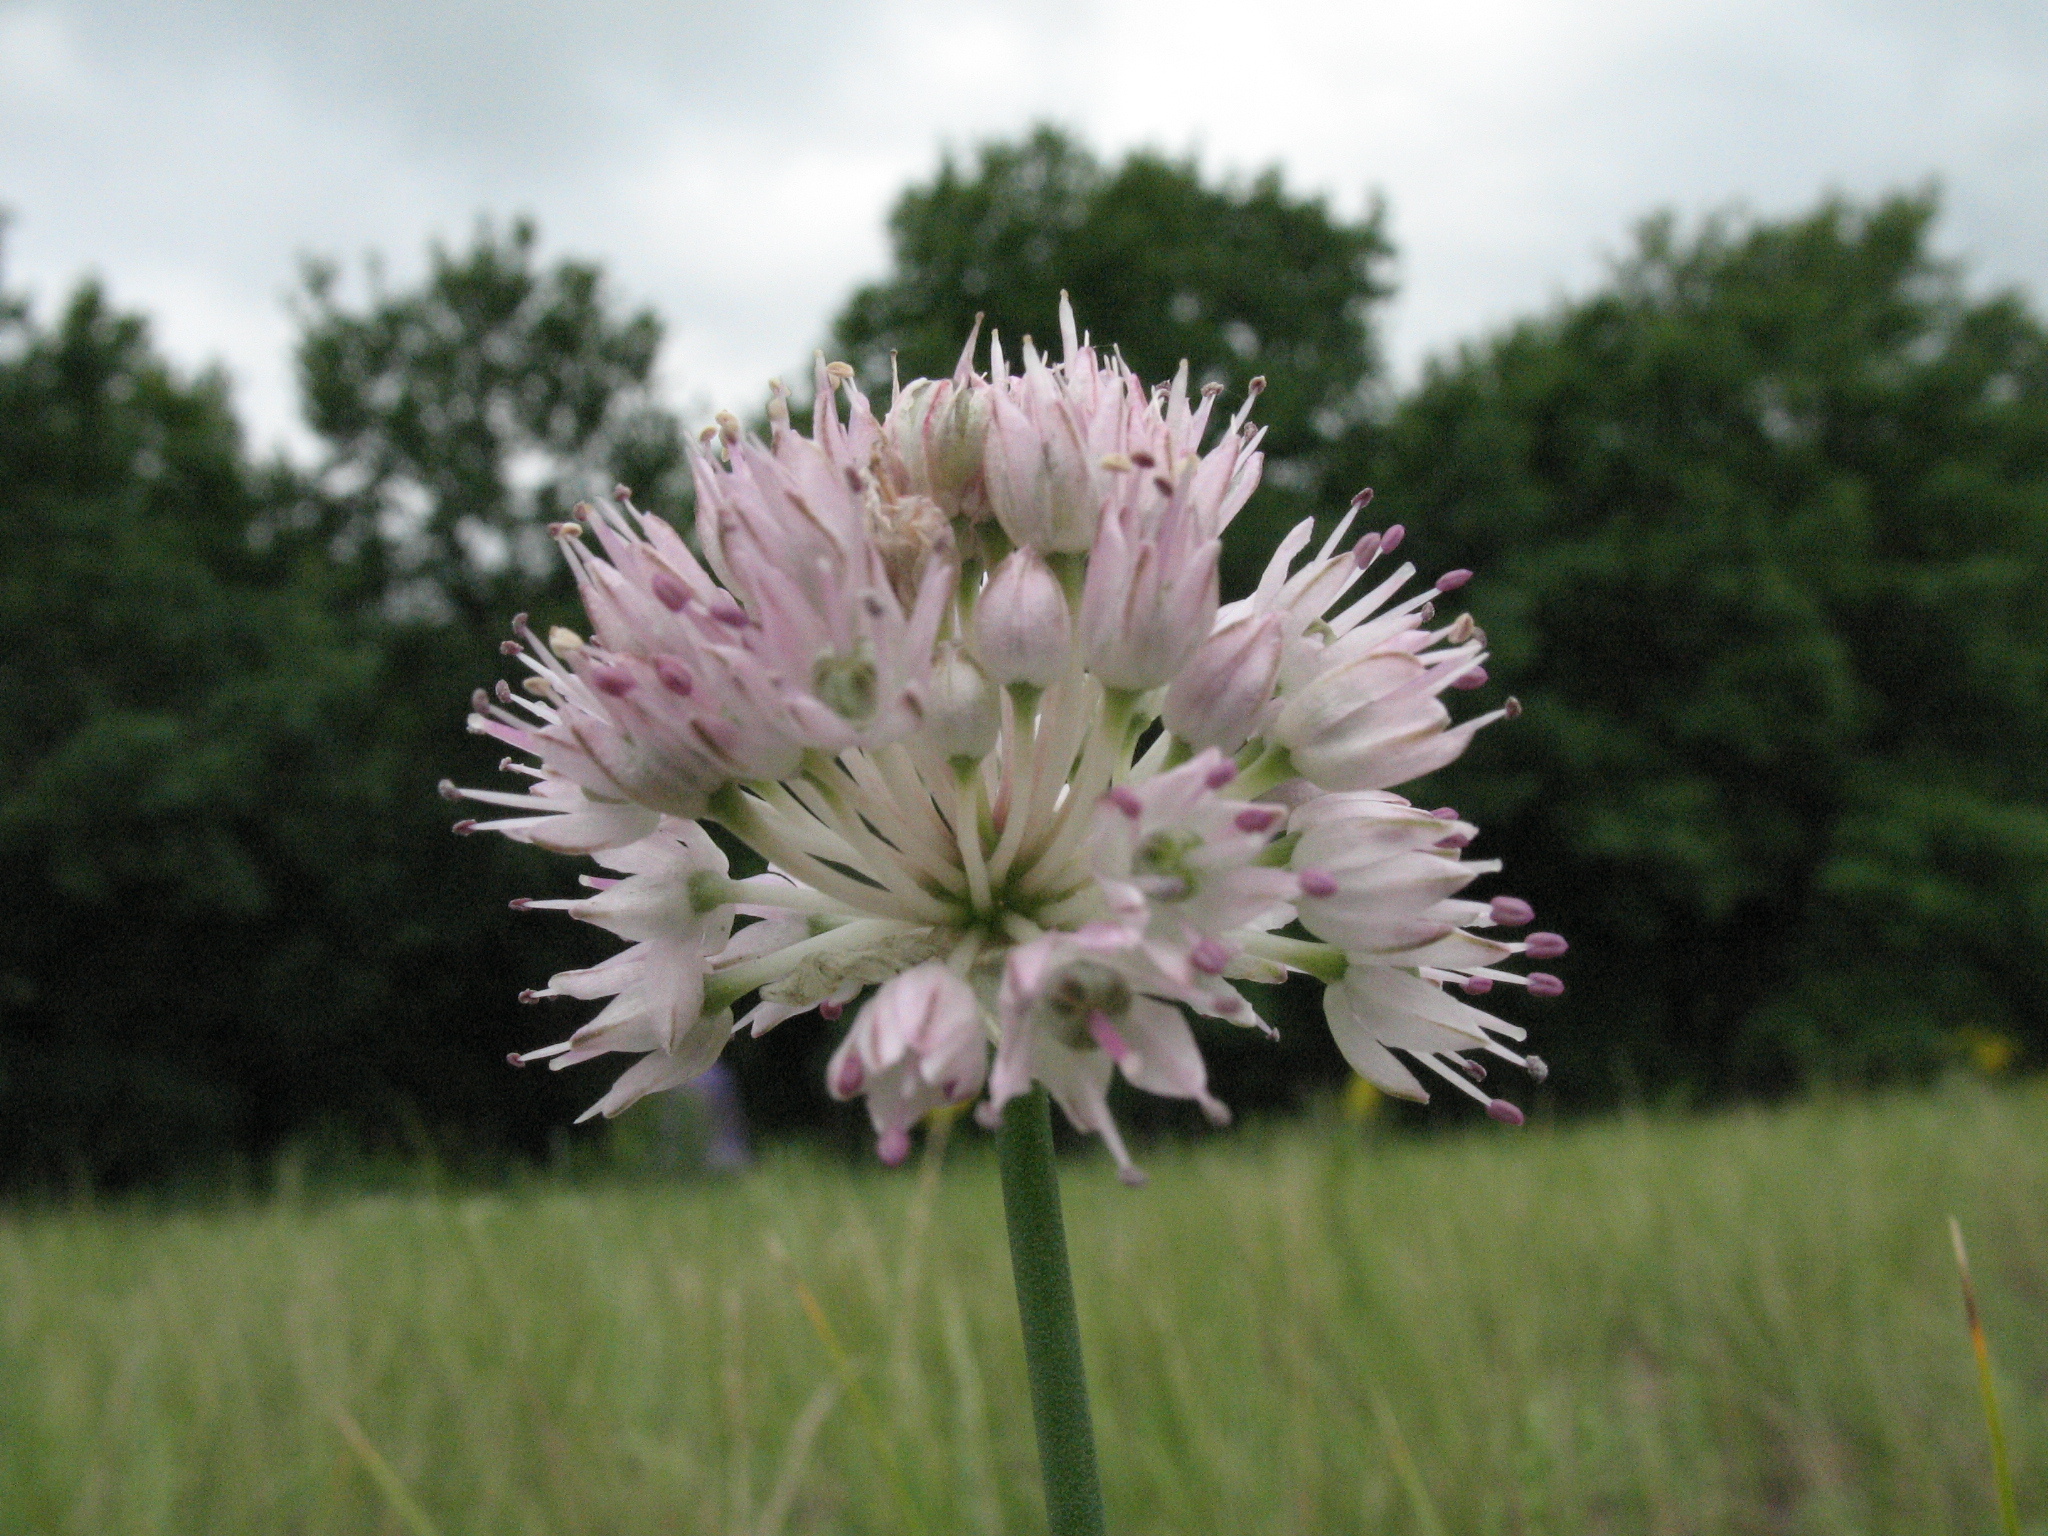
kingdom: Plantae
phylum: Tracheophyta
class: Liliopsida
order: Asparagales
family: Amaryllidaceae
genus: Allium
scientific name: Allium lineare
